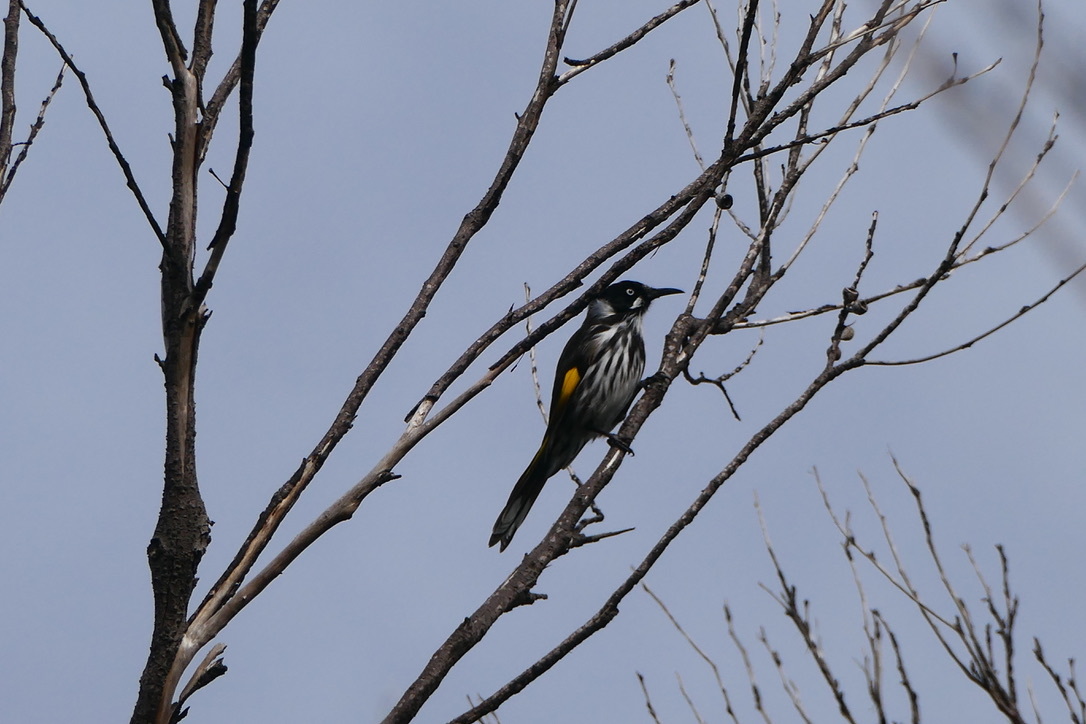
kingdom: Animalia
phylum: Chordata
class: Aves
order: Passeriformes
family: Meliphagidae
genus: Phylidonyris
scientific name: Phylidonyris novaehollandiae
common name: New holland honeyeater
